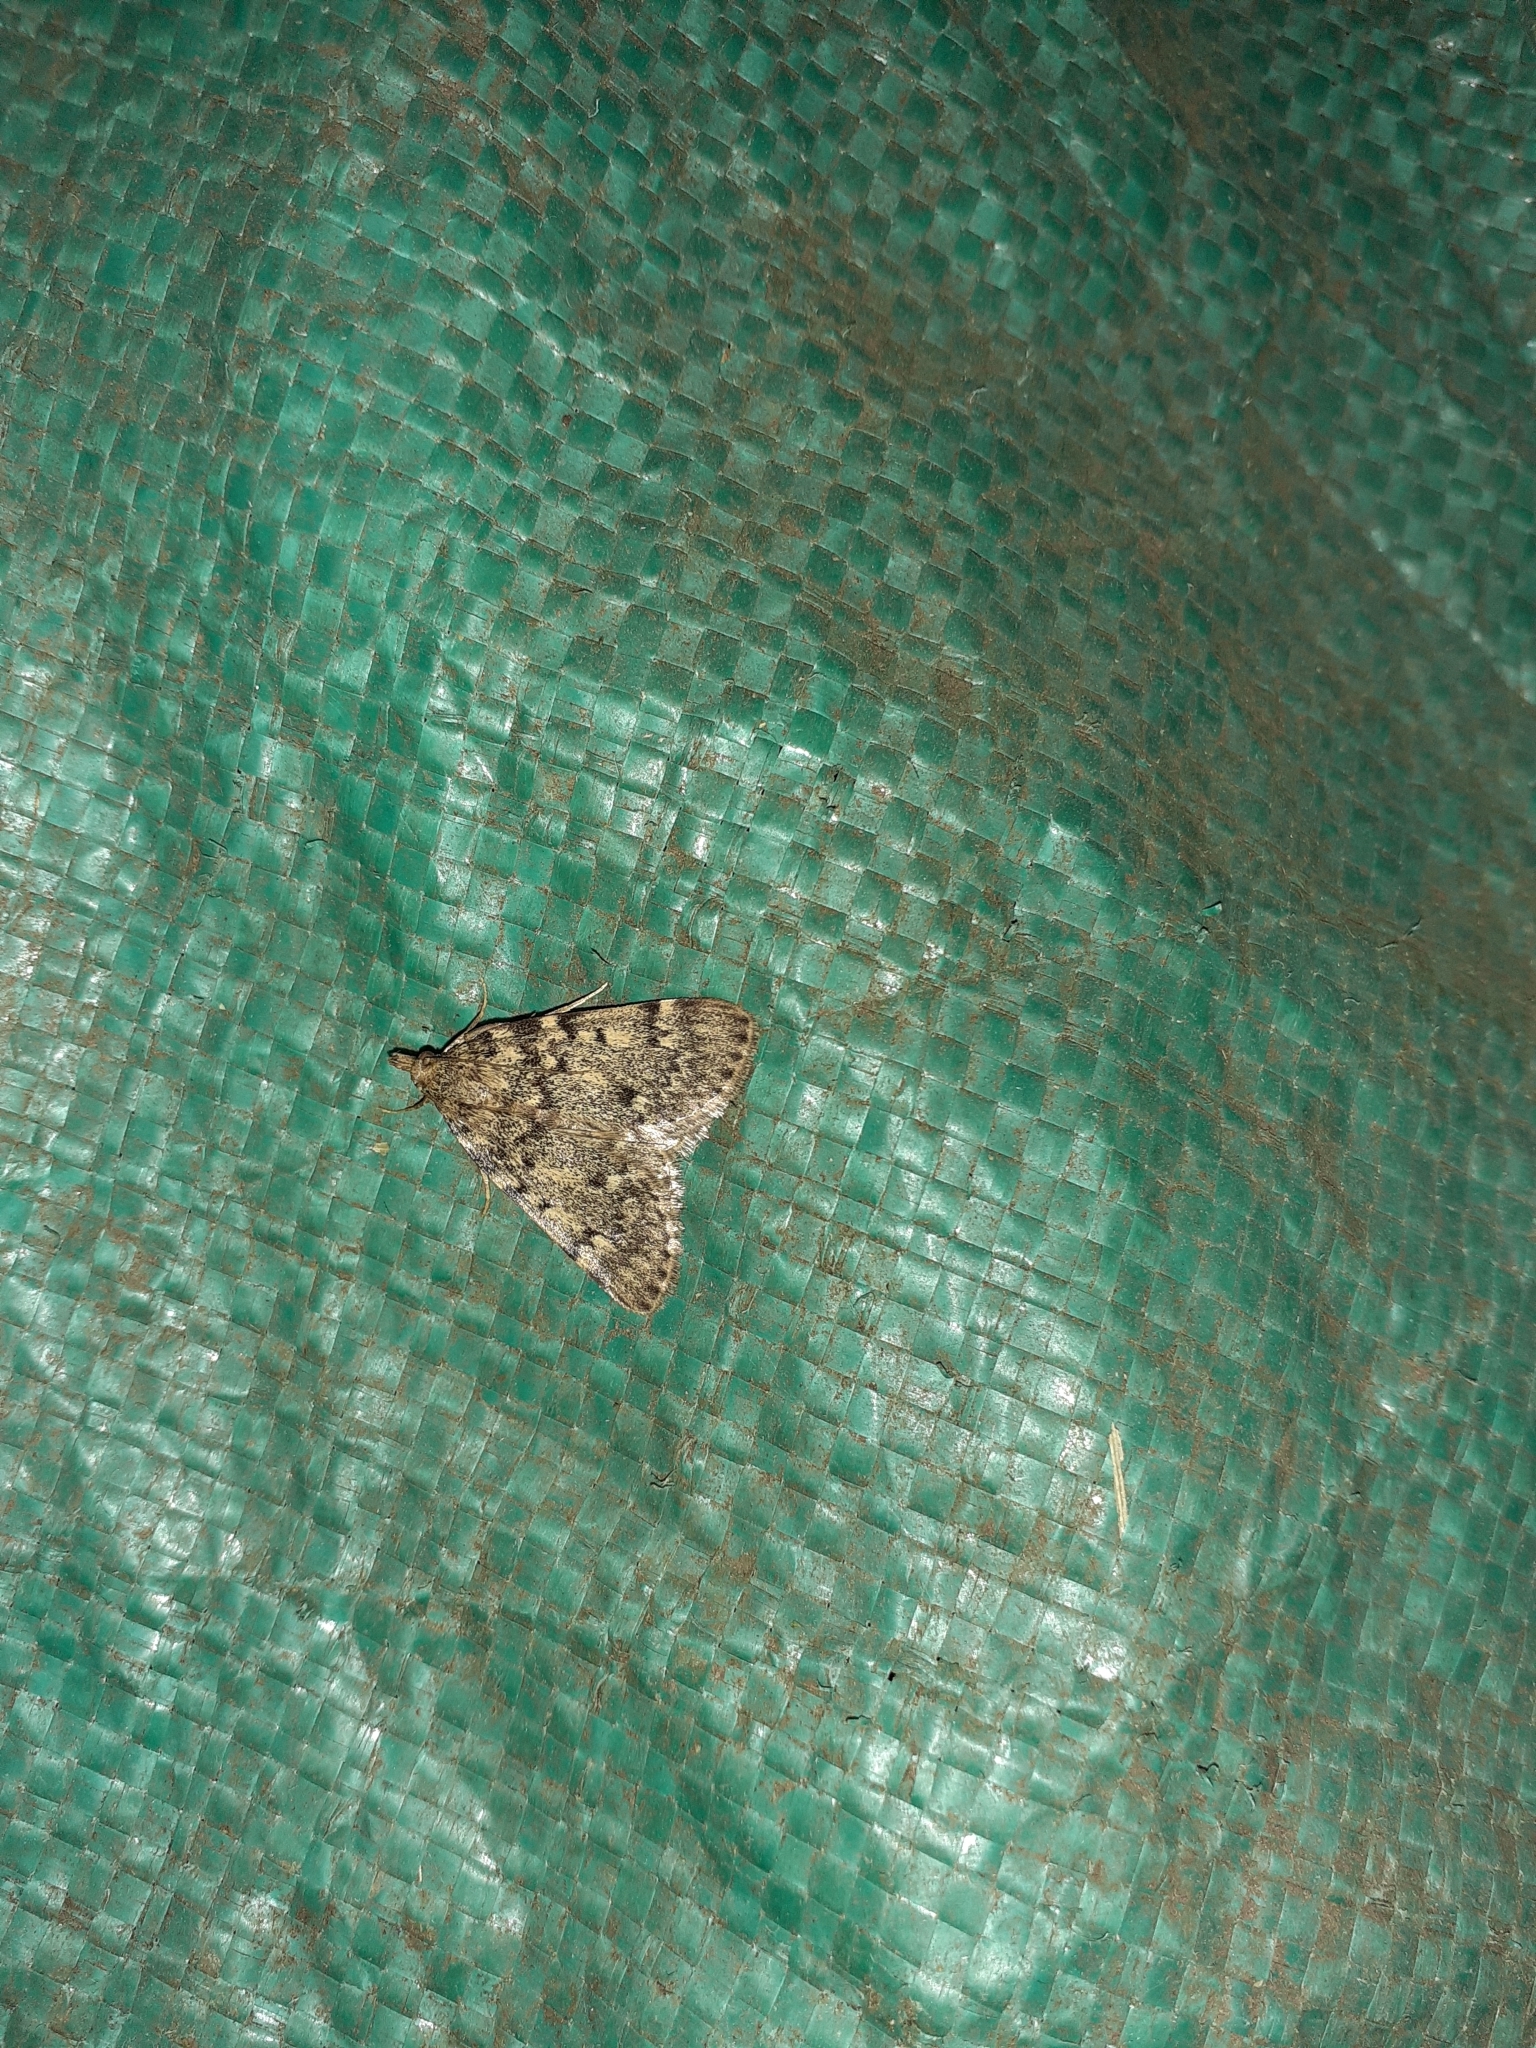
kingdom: Animalia
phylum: Arthropoda
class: Insecta
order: Lepidoptera
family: Pyralidae
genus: Aglossa
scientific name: Aglossa pinguinalis
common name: Large tabby
